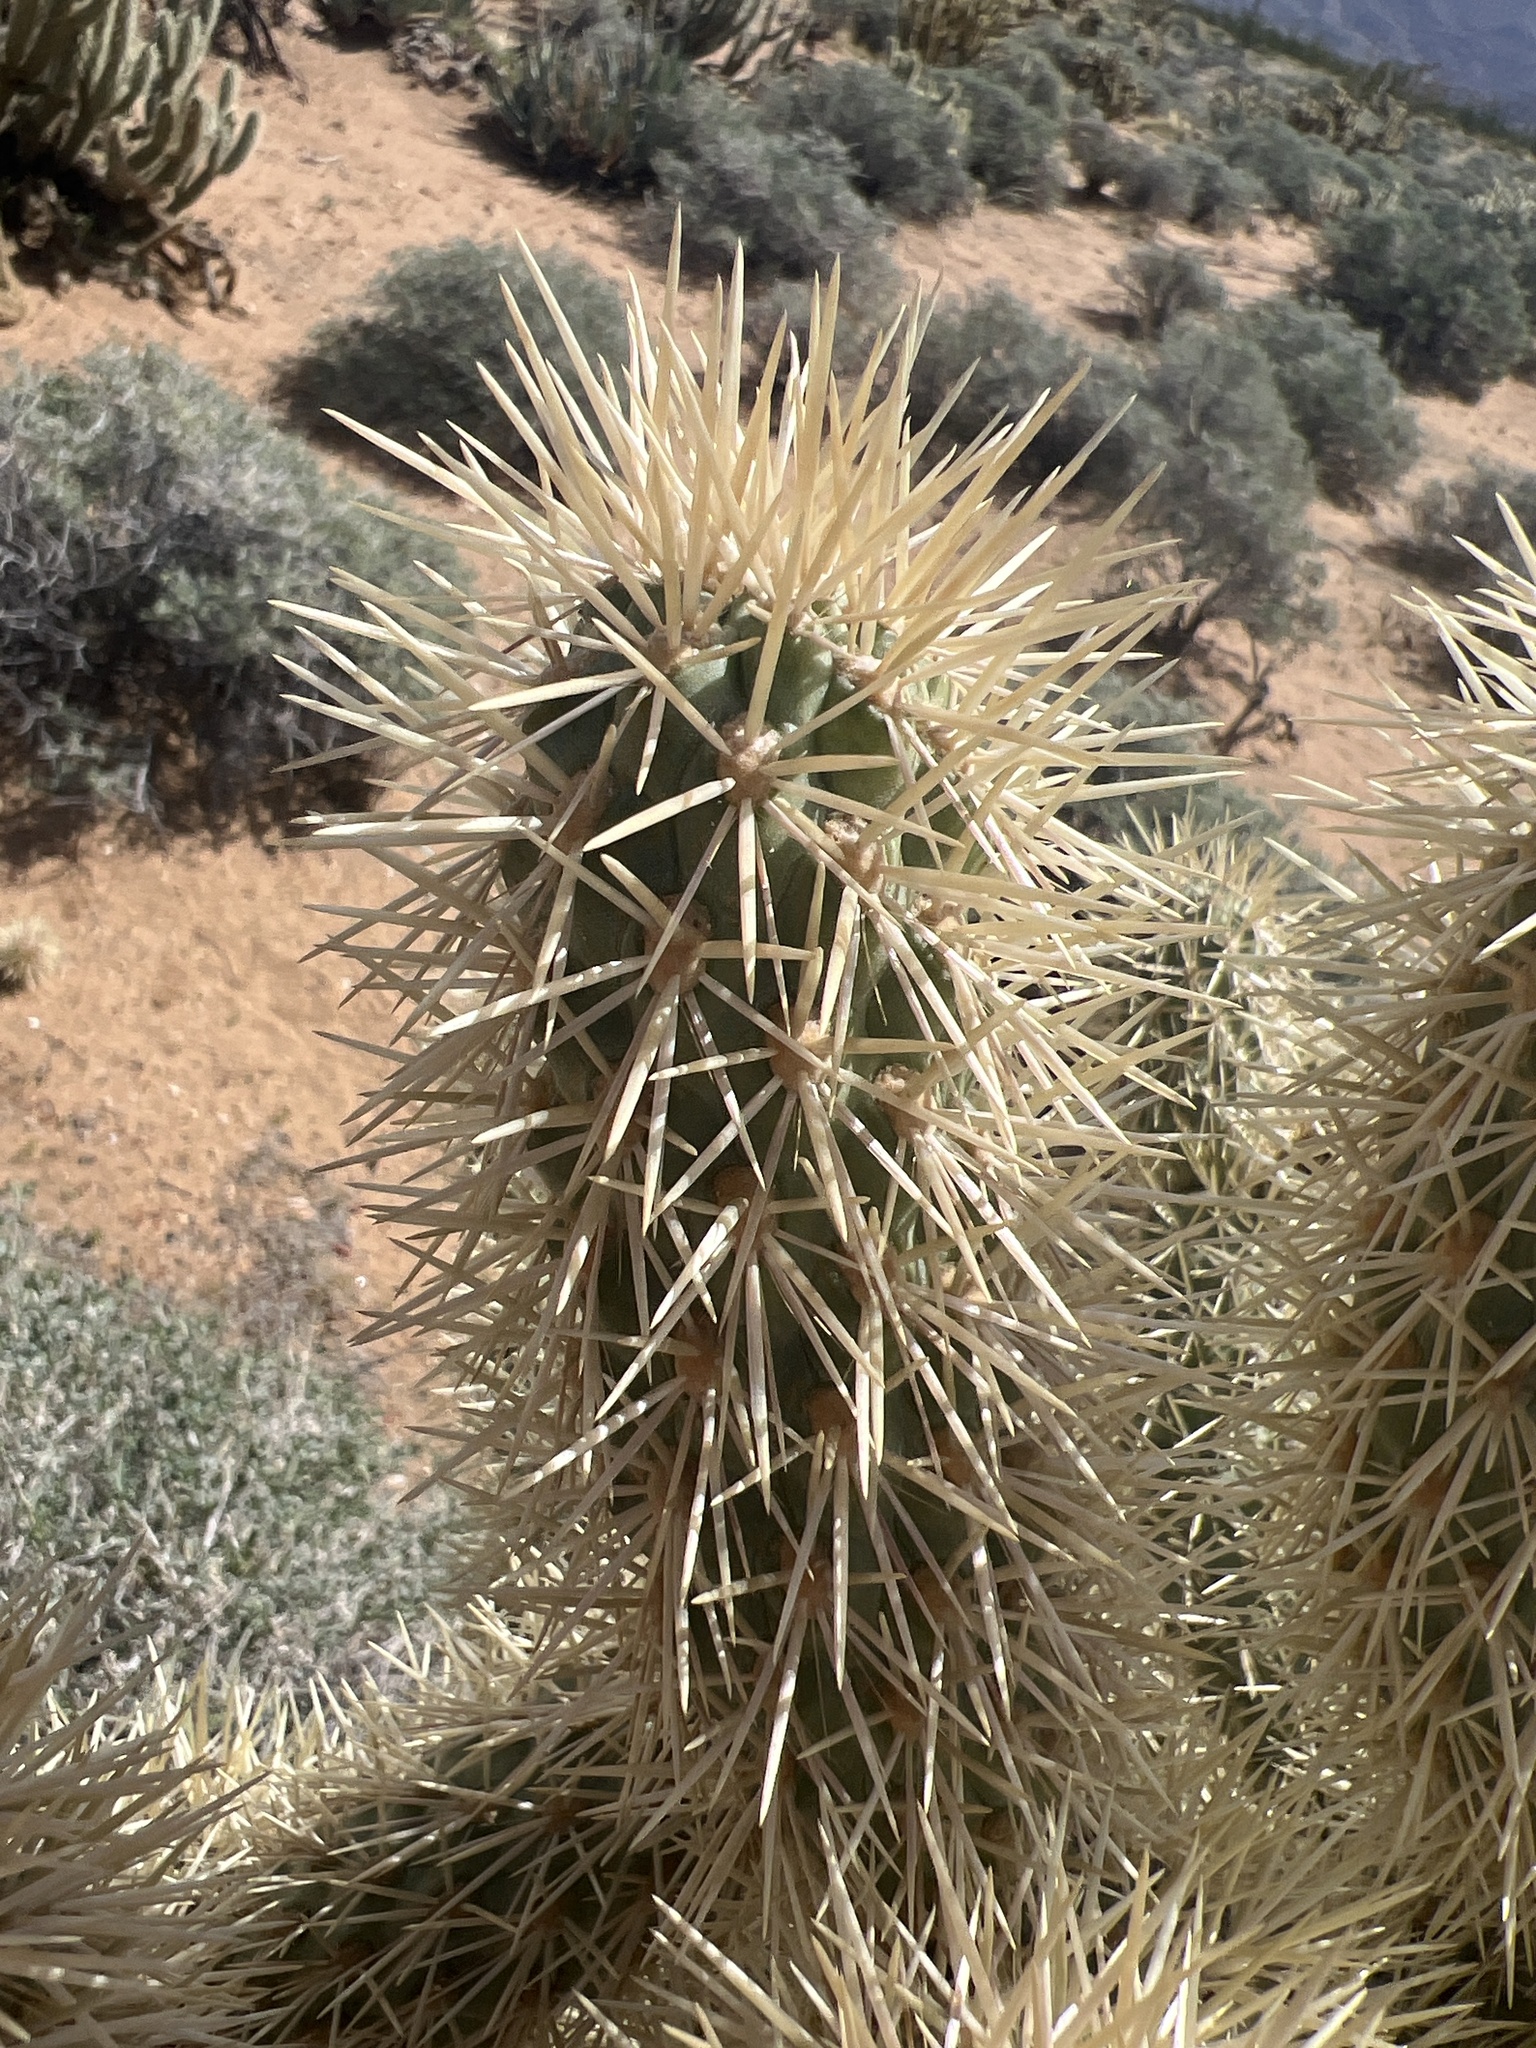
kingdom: Plantae
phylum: Tracheophyta
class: Magnoliopsida
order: Caryophyllales
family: Cactaceae
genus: Cylindropuntia
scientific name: Cylindropuntia fosbergii
